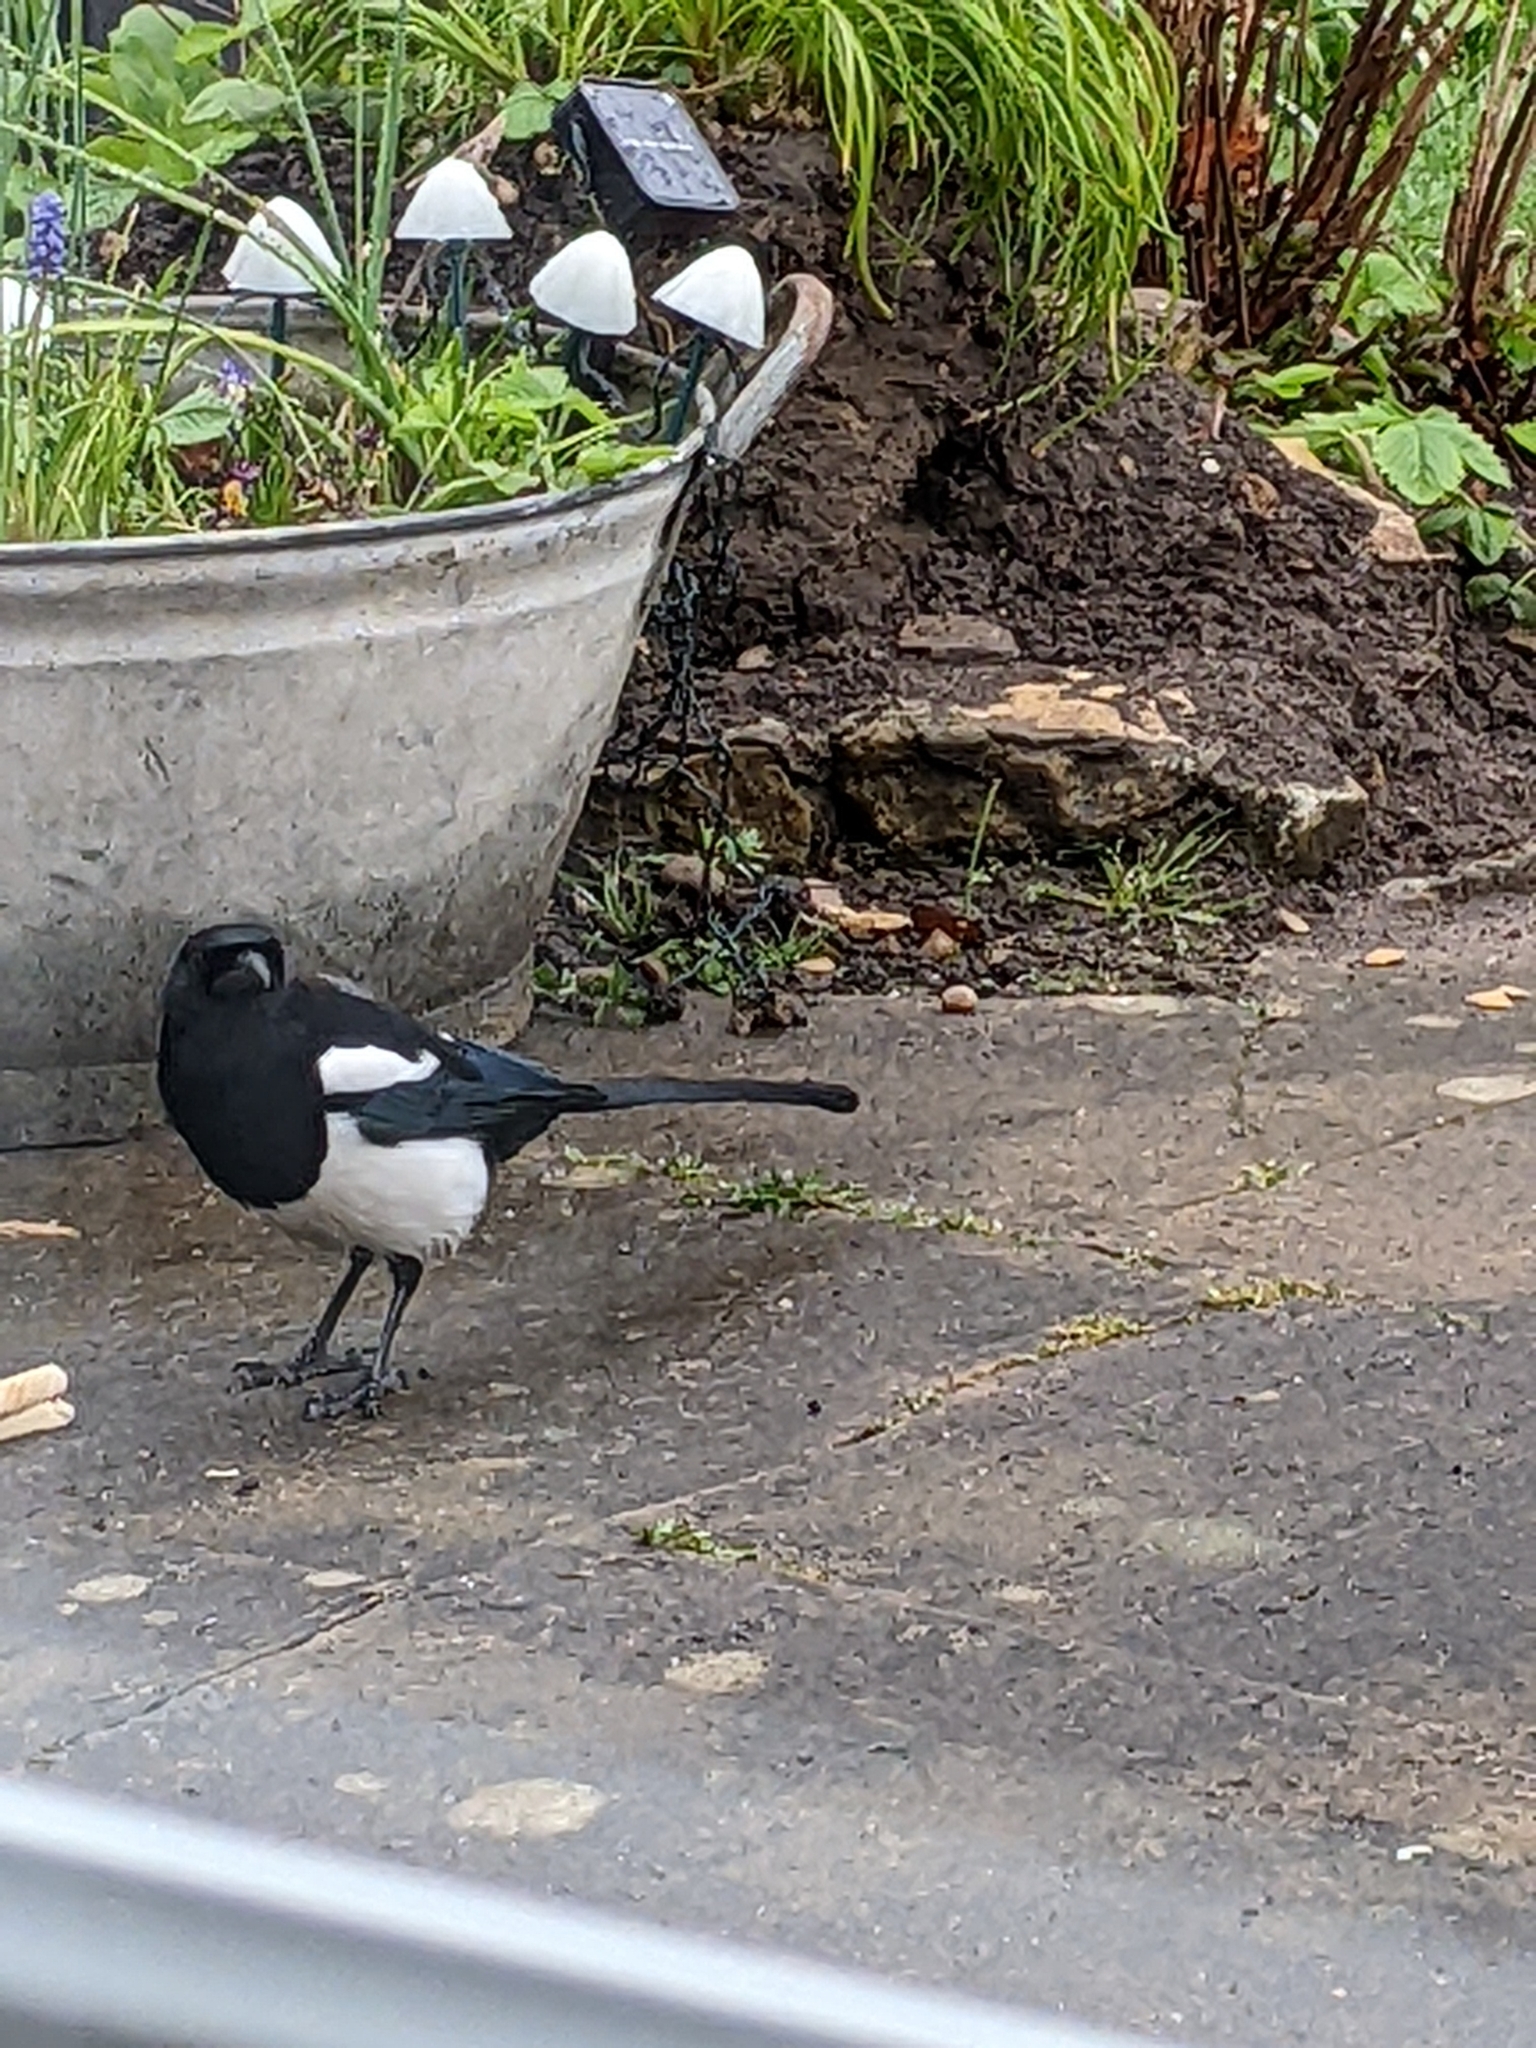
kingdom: Animalia
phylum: Chordata
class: Aves
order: Passeriformes
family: Corvidae
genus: Pica
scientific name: Pica pica
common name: Eurasian magpie
